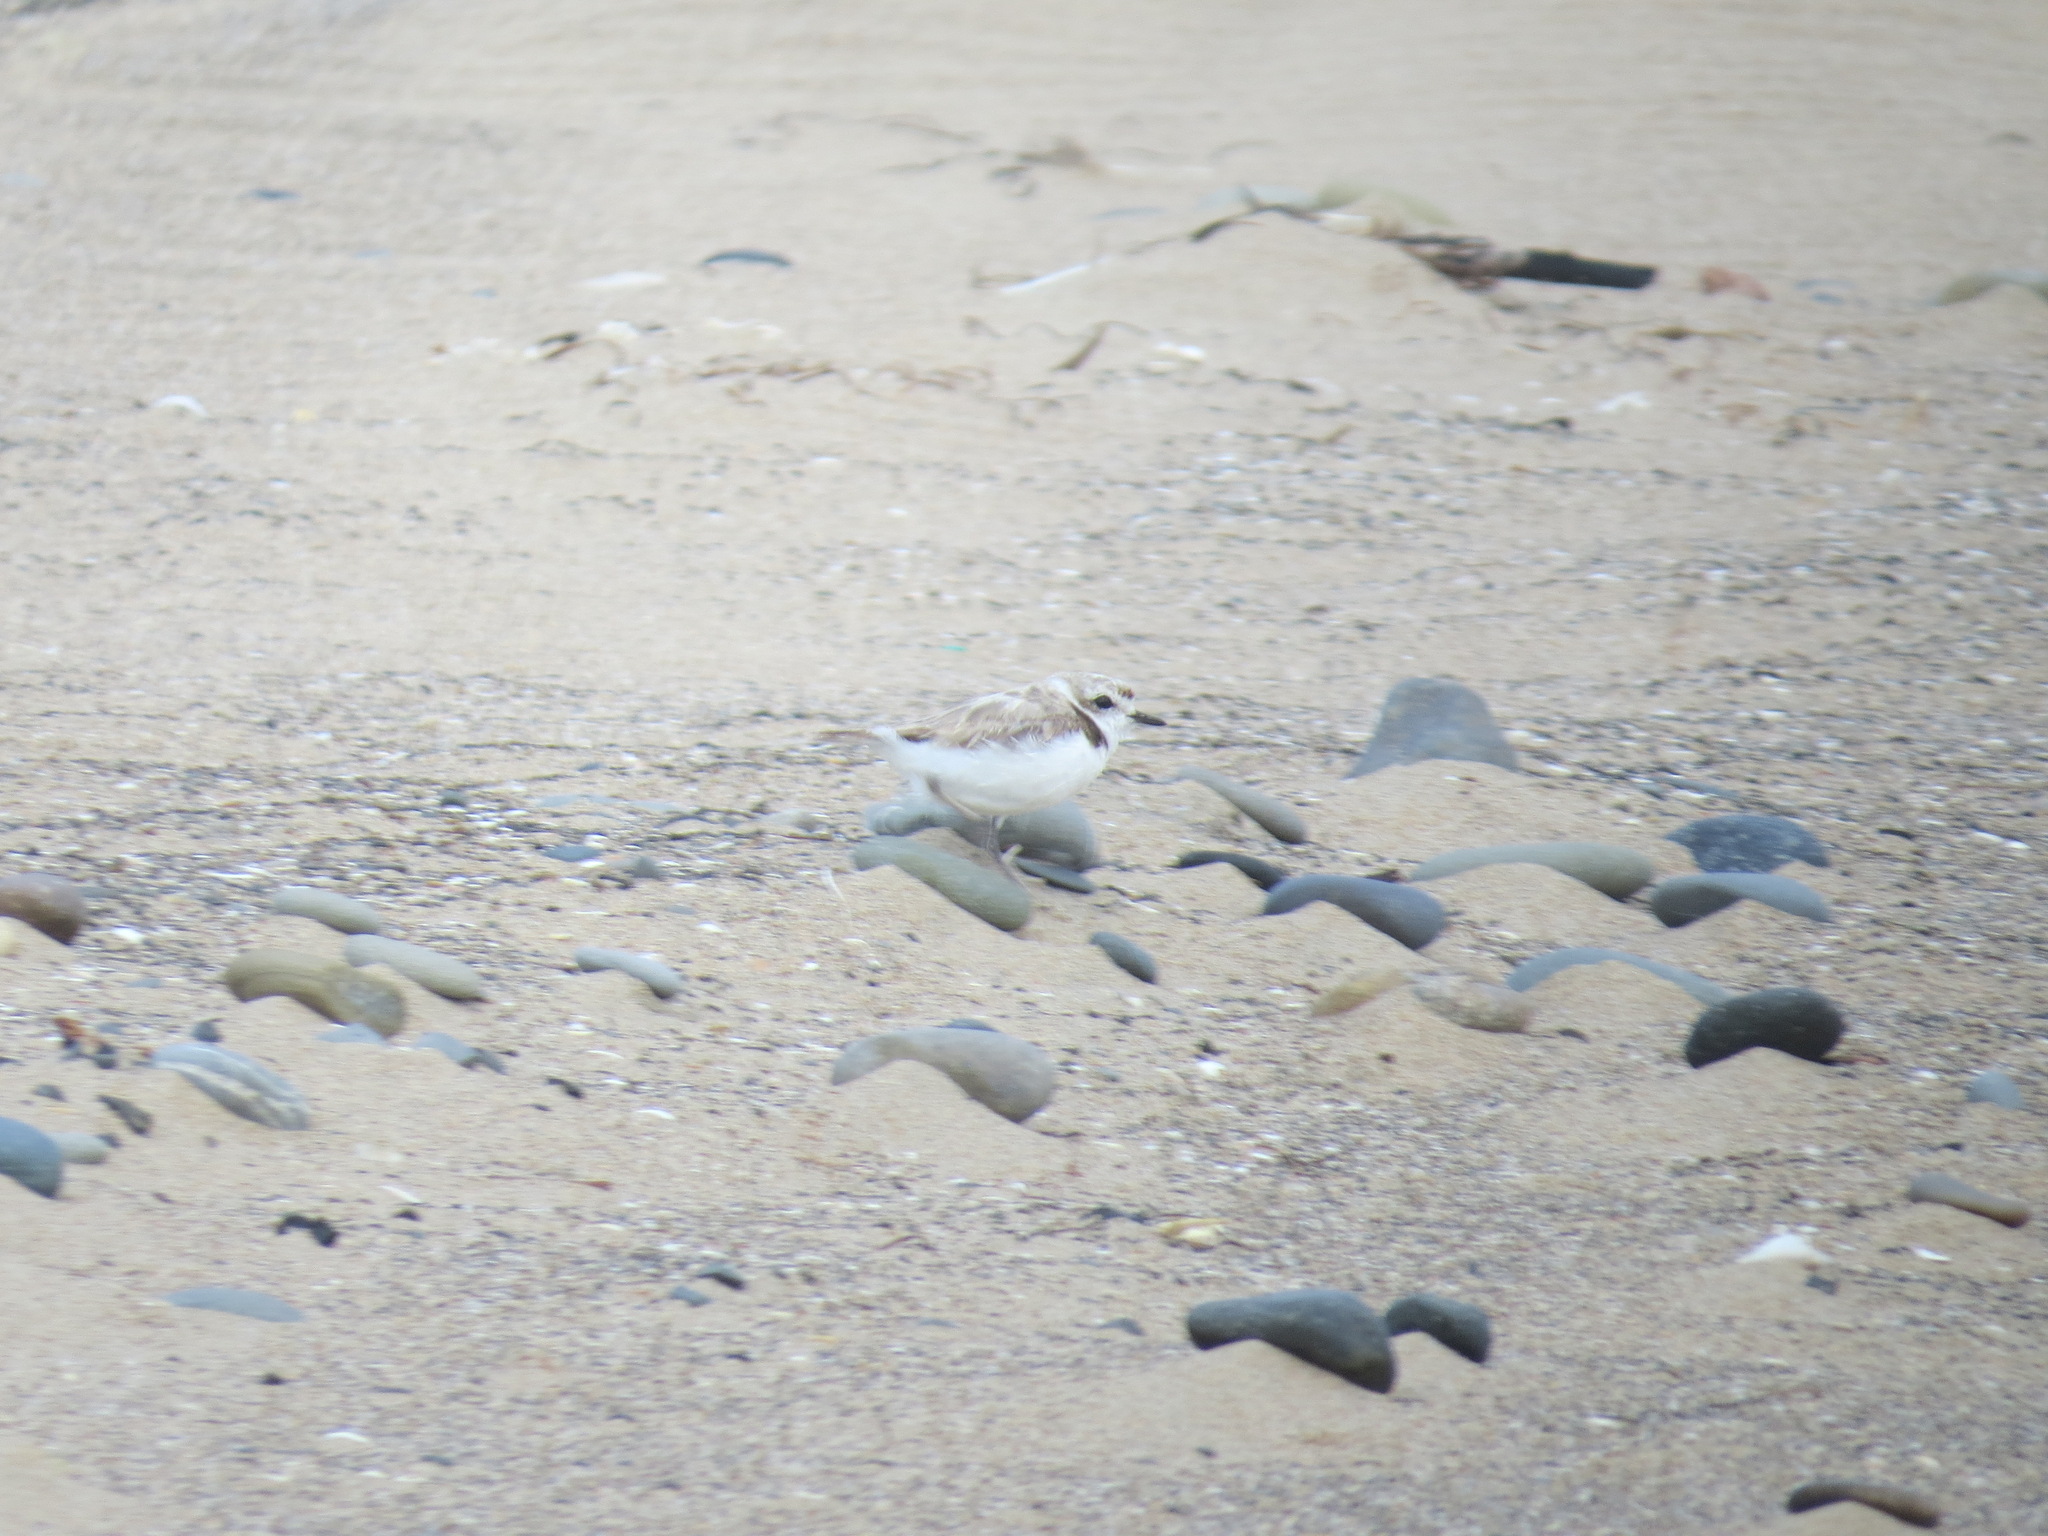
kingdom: Animalia
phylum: Chordata
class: Aves
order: Charadriiformes
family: Charadriidae
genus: Anarhynchus
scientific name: Anarhynchus
